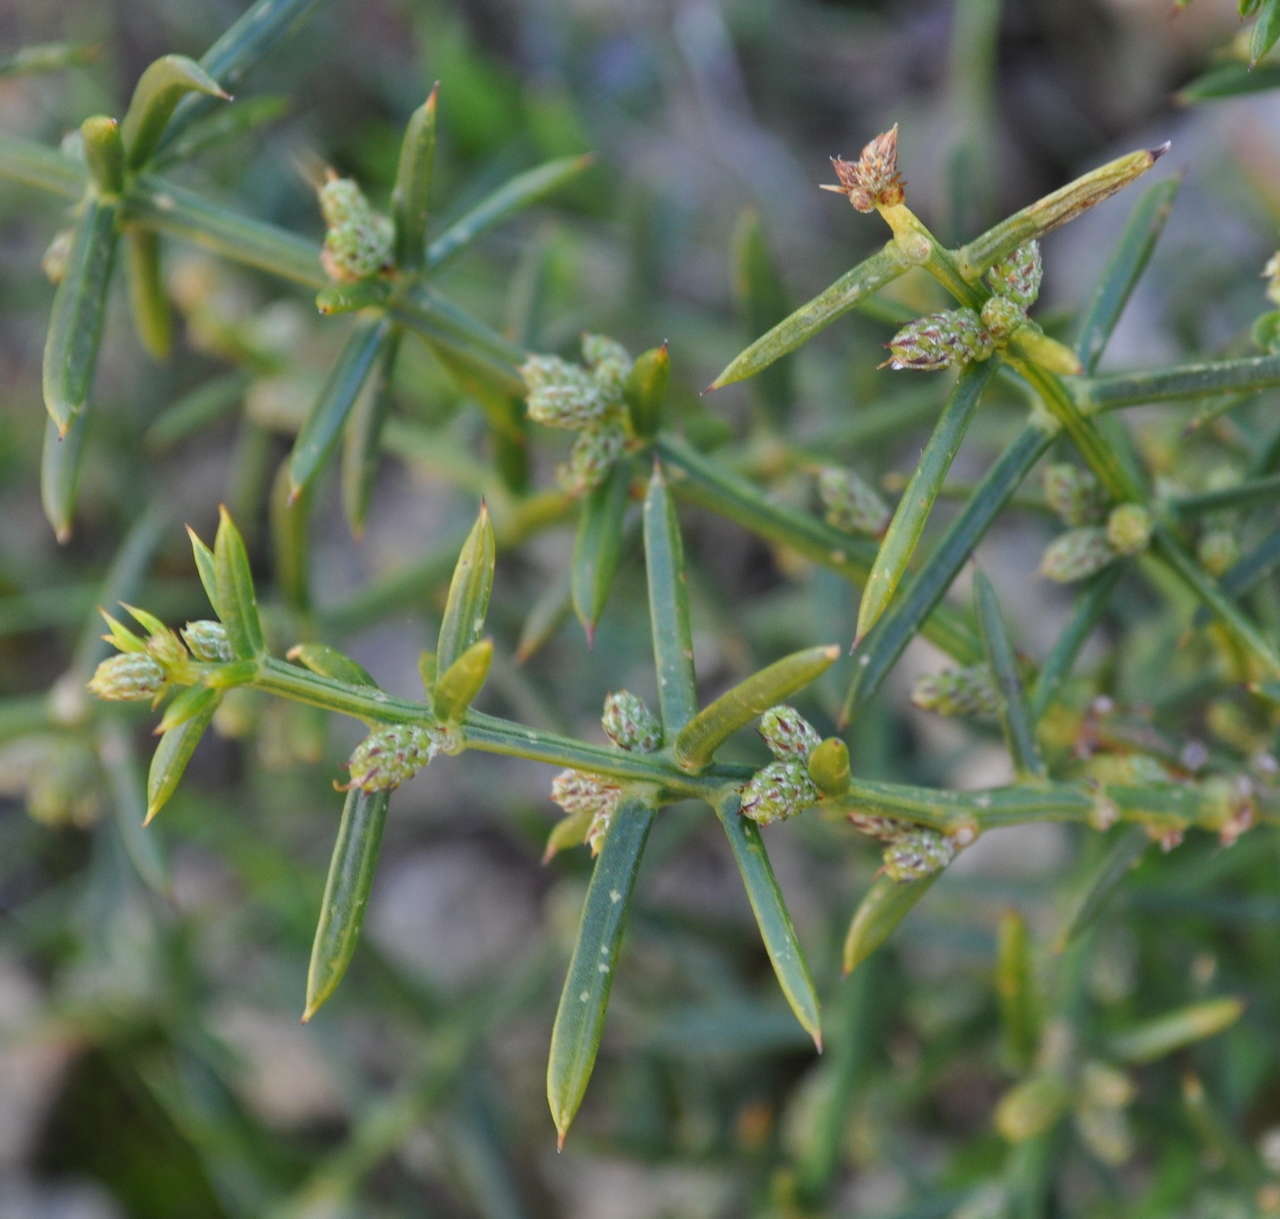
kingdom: Plantae
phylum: Tracheophyta
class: Magnoliopsida
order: Fabales
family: Fabaceae
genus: Acacia
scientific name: Acacia verticillata
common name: Prickly moses
